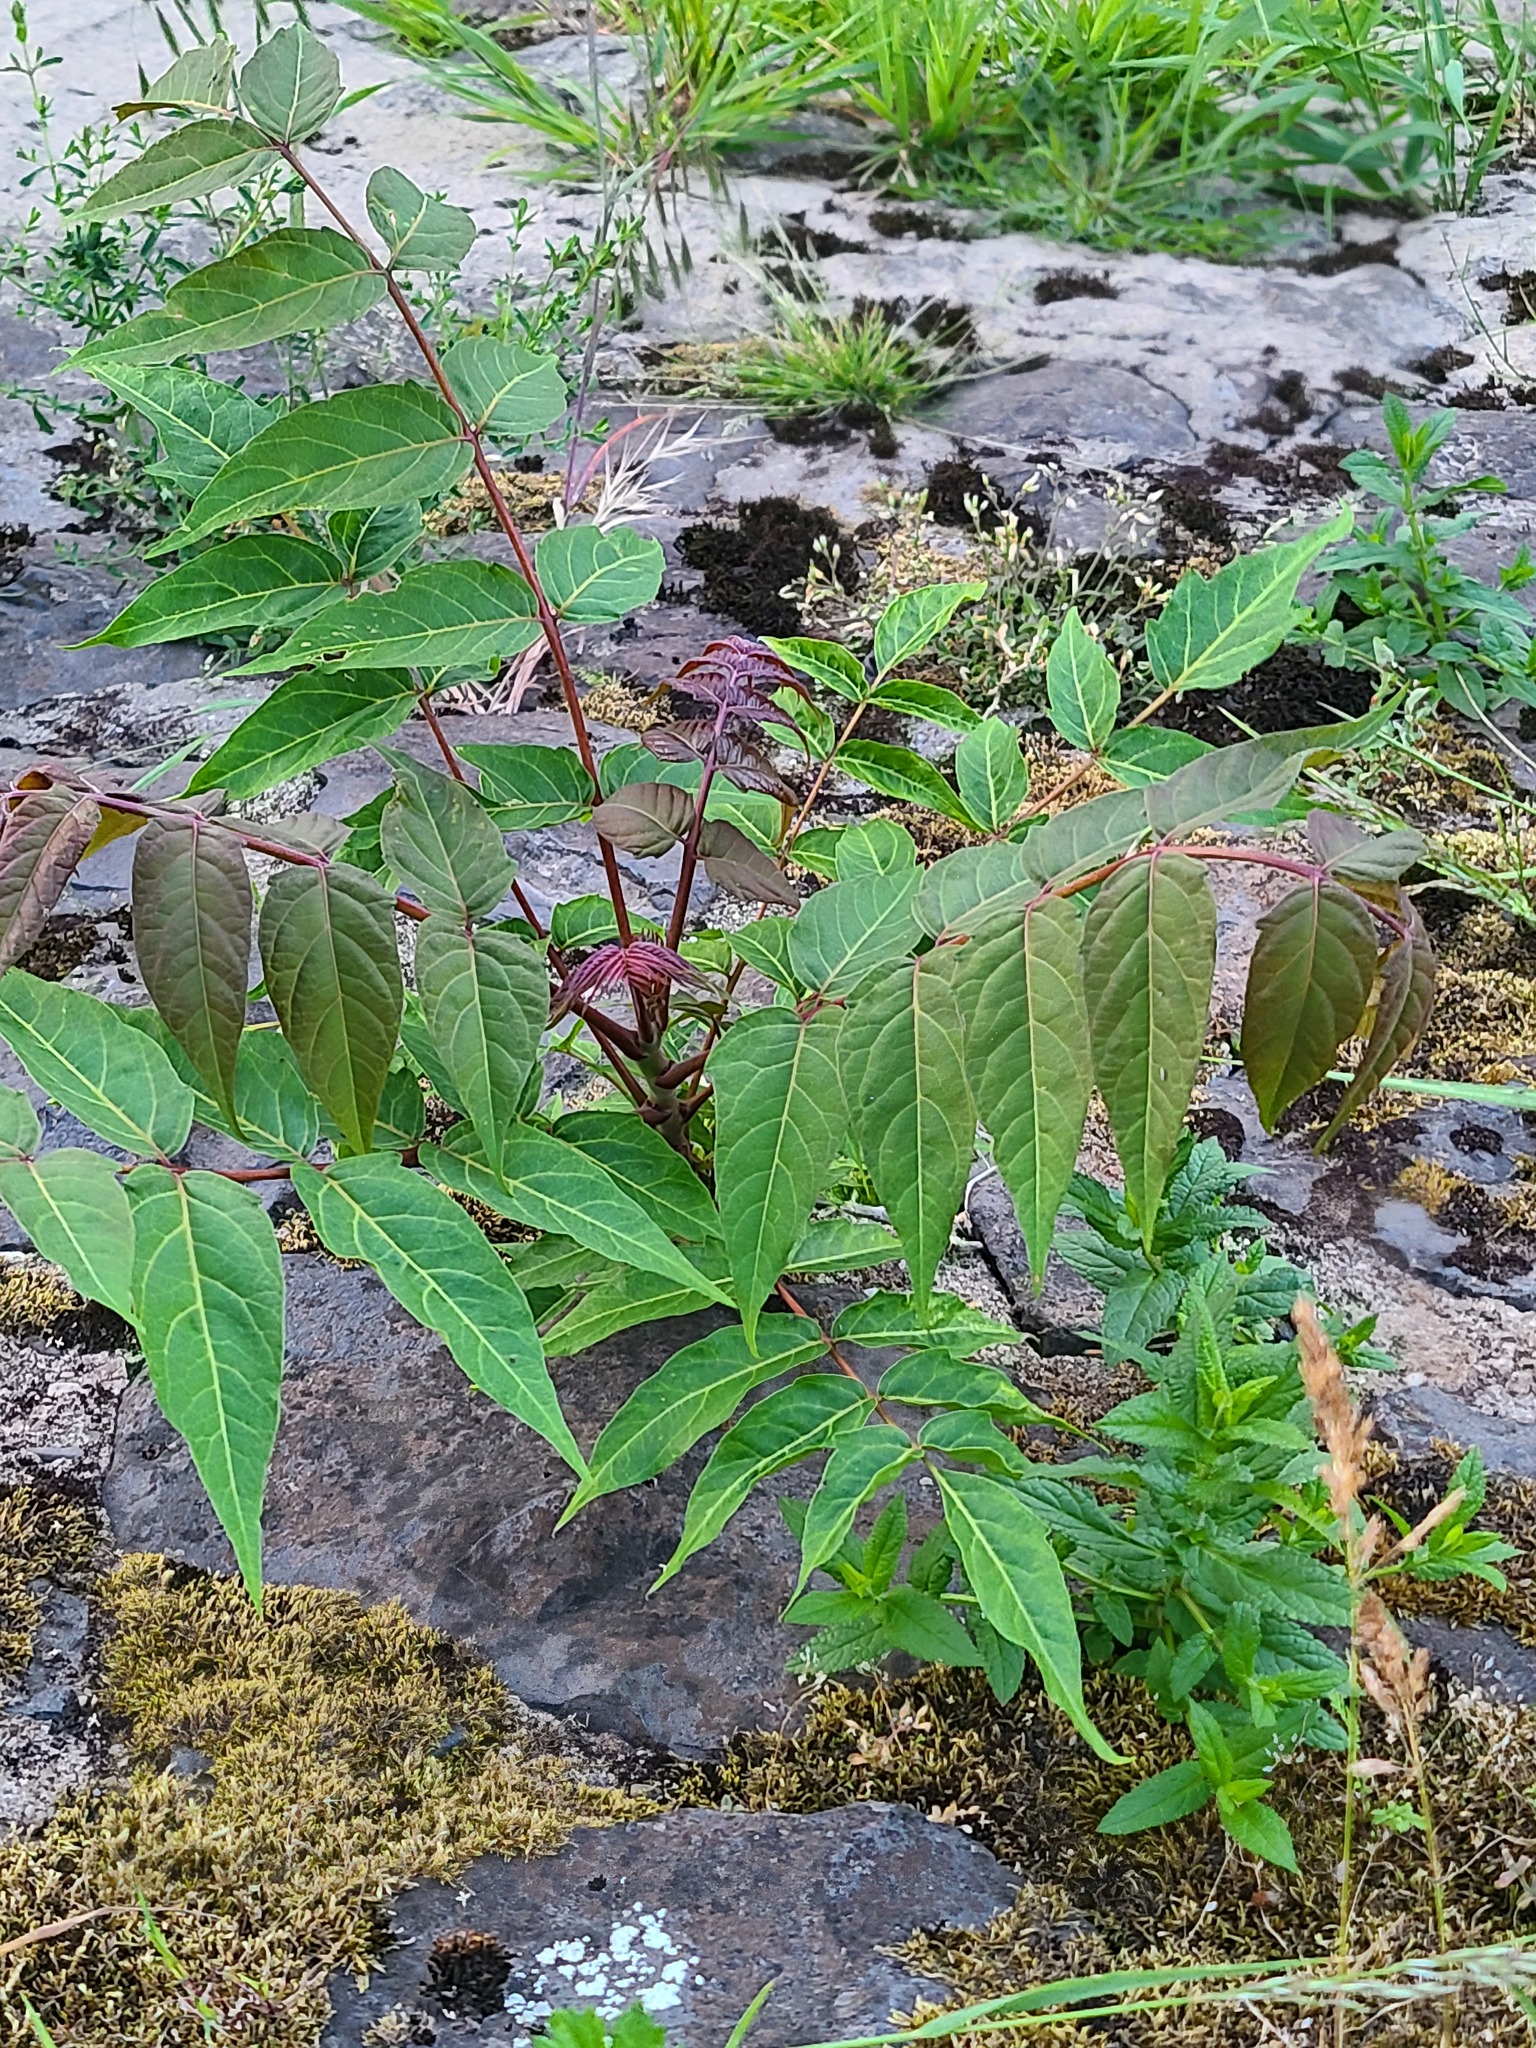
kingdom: Plantae
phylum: Tracheophyta
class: Magnoliopsida
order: Sapindales
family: Simaroubaceae
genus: Ailanthus
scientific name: Ailanthus altissima
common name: Tree-of-heaven
